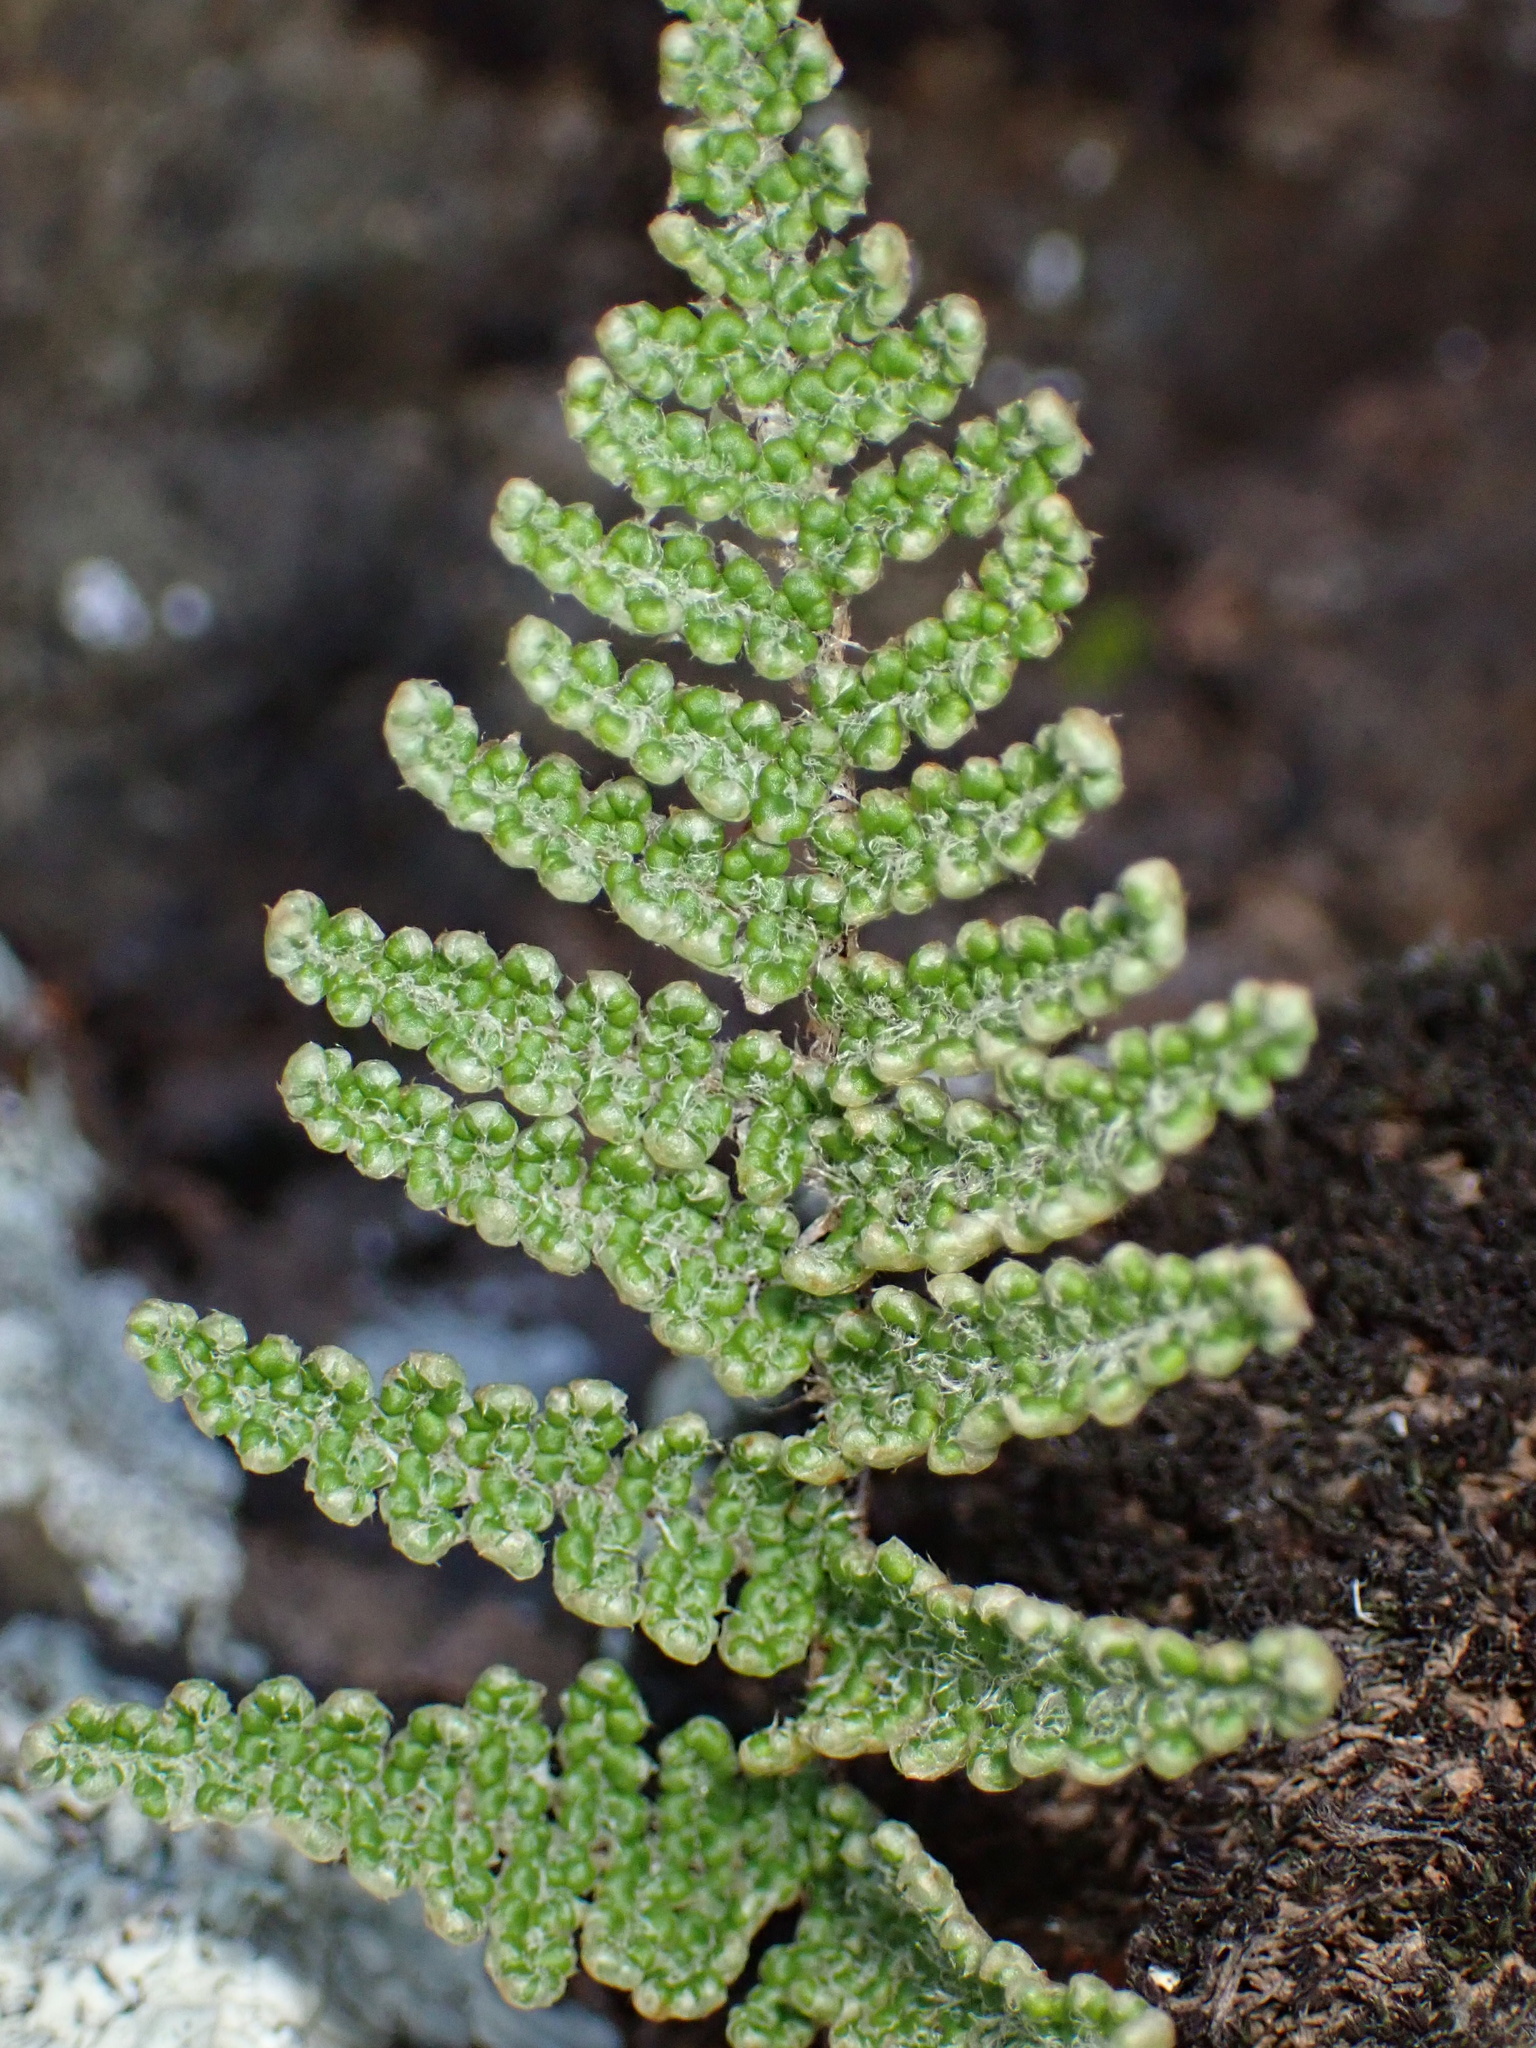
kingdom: Plantae
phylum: Tracheophyta
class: Polypodiopsida
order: Polypodiales
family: Pteridaceae
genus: Myriopteris
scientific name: Myriopteris covillei
